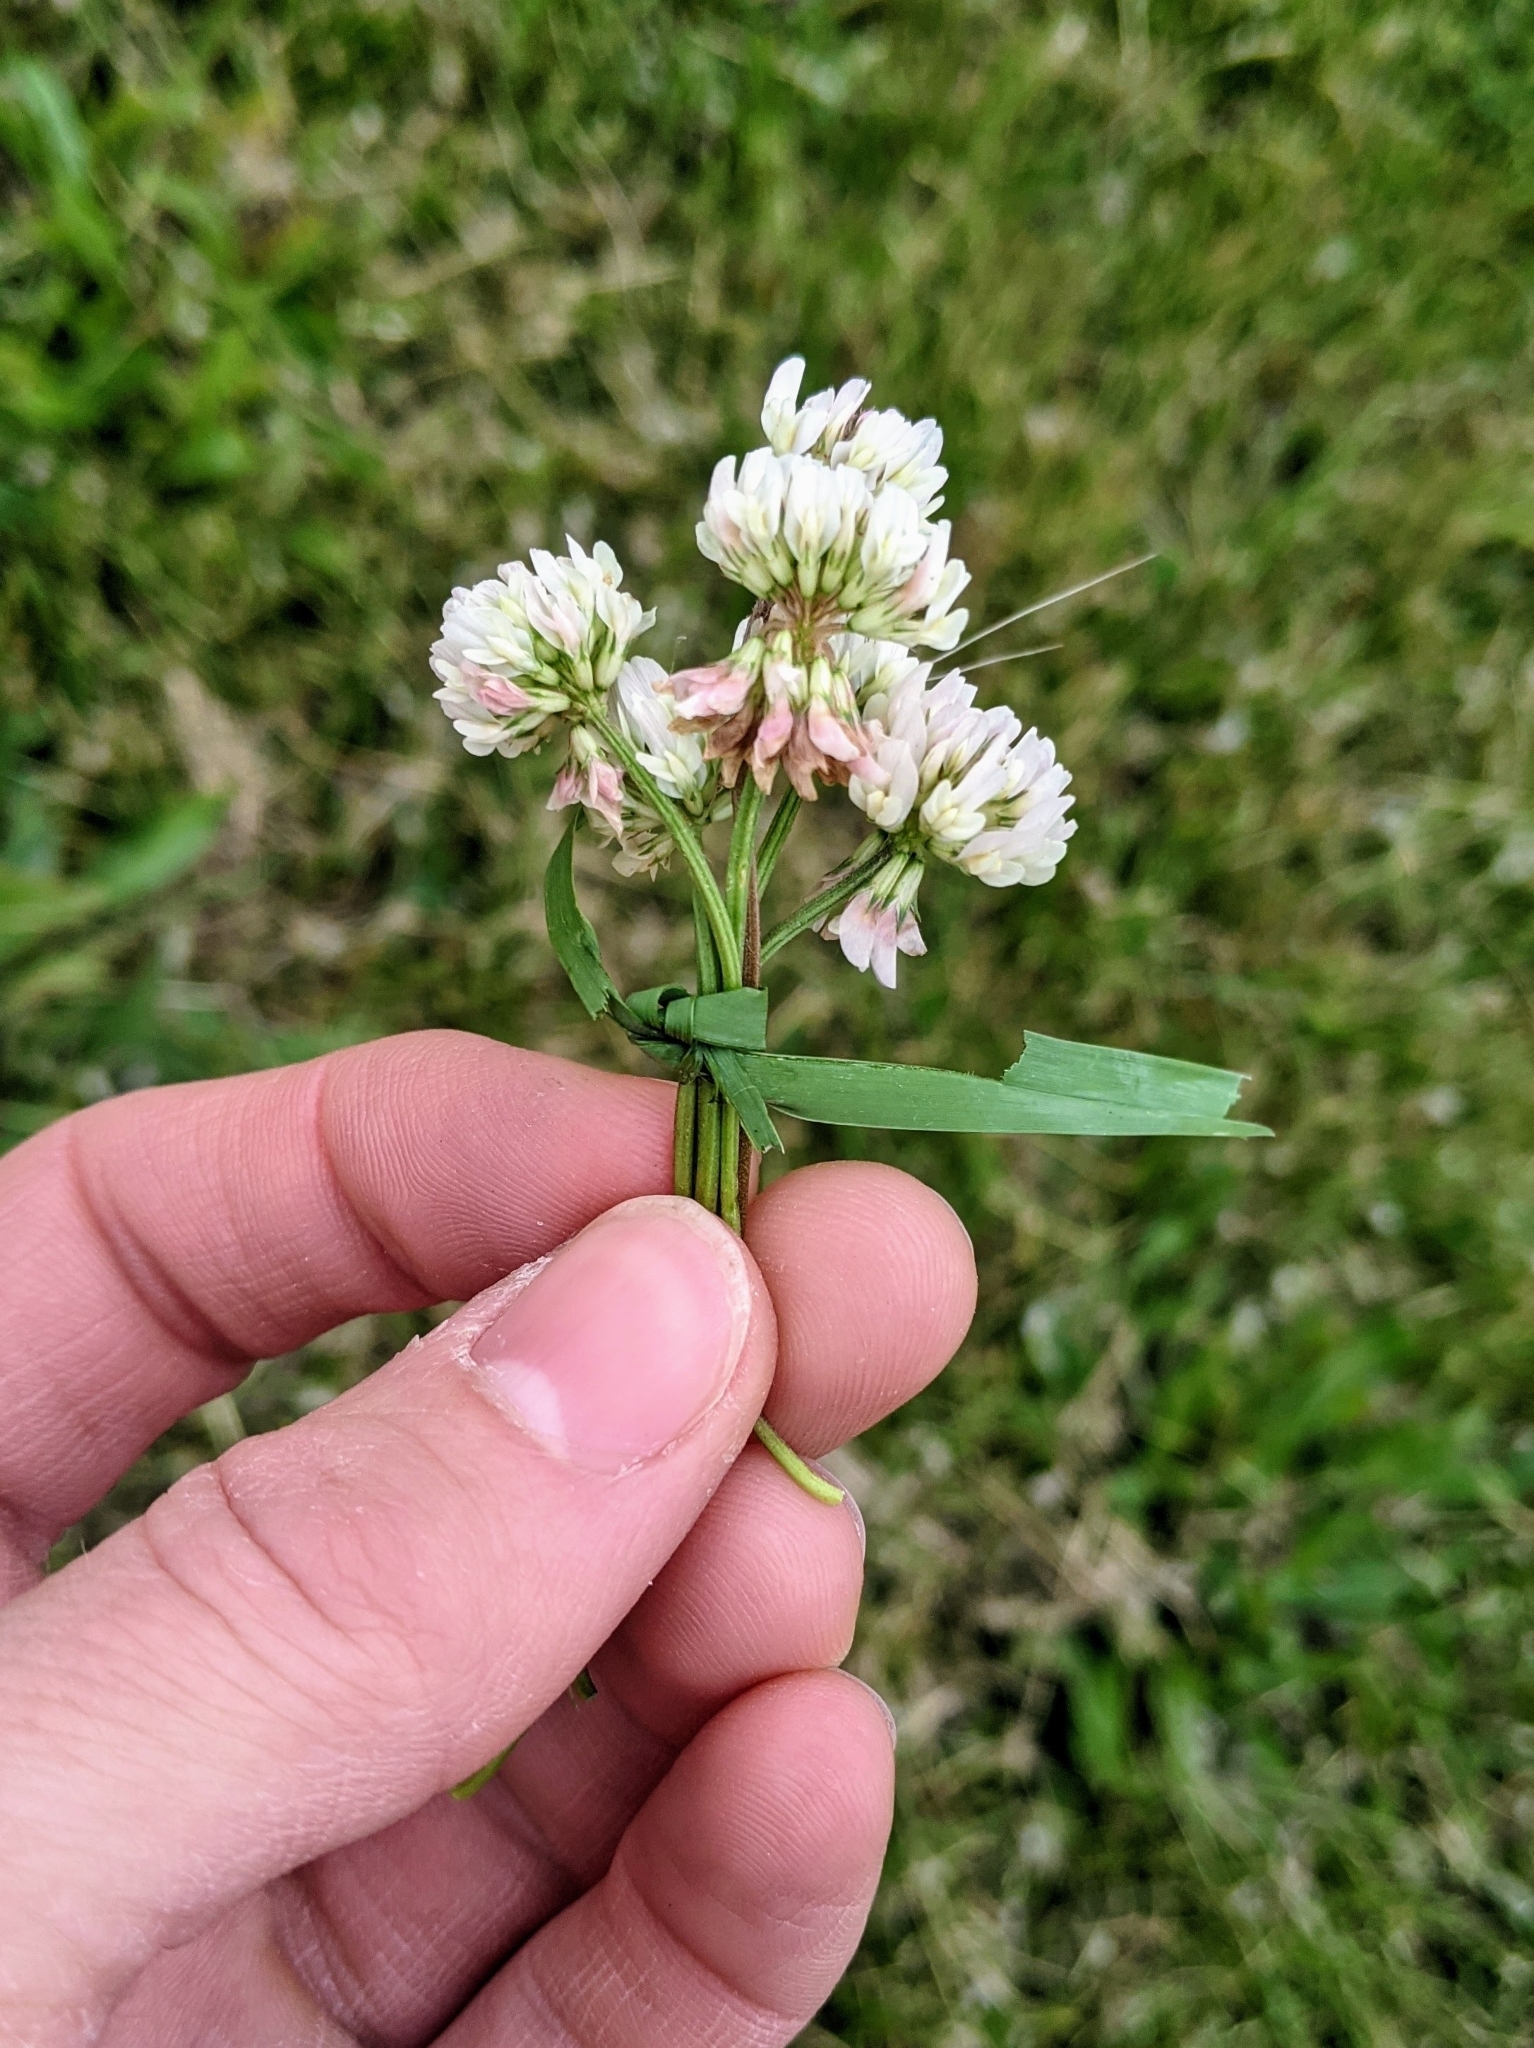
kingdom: Plantae
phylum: Tracheophyta
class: Magnoliopsida
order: Fabales
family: Fabaceae
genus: Trifolium
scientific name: Trifolium repens
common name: White clover
